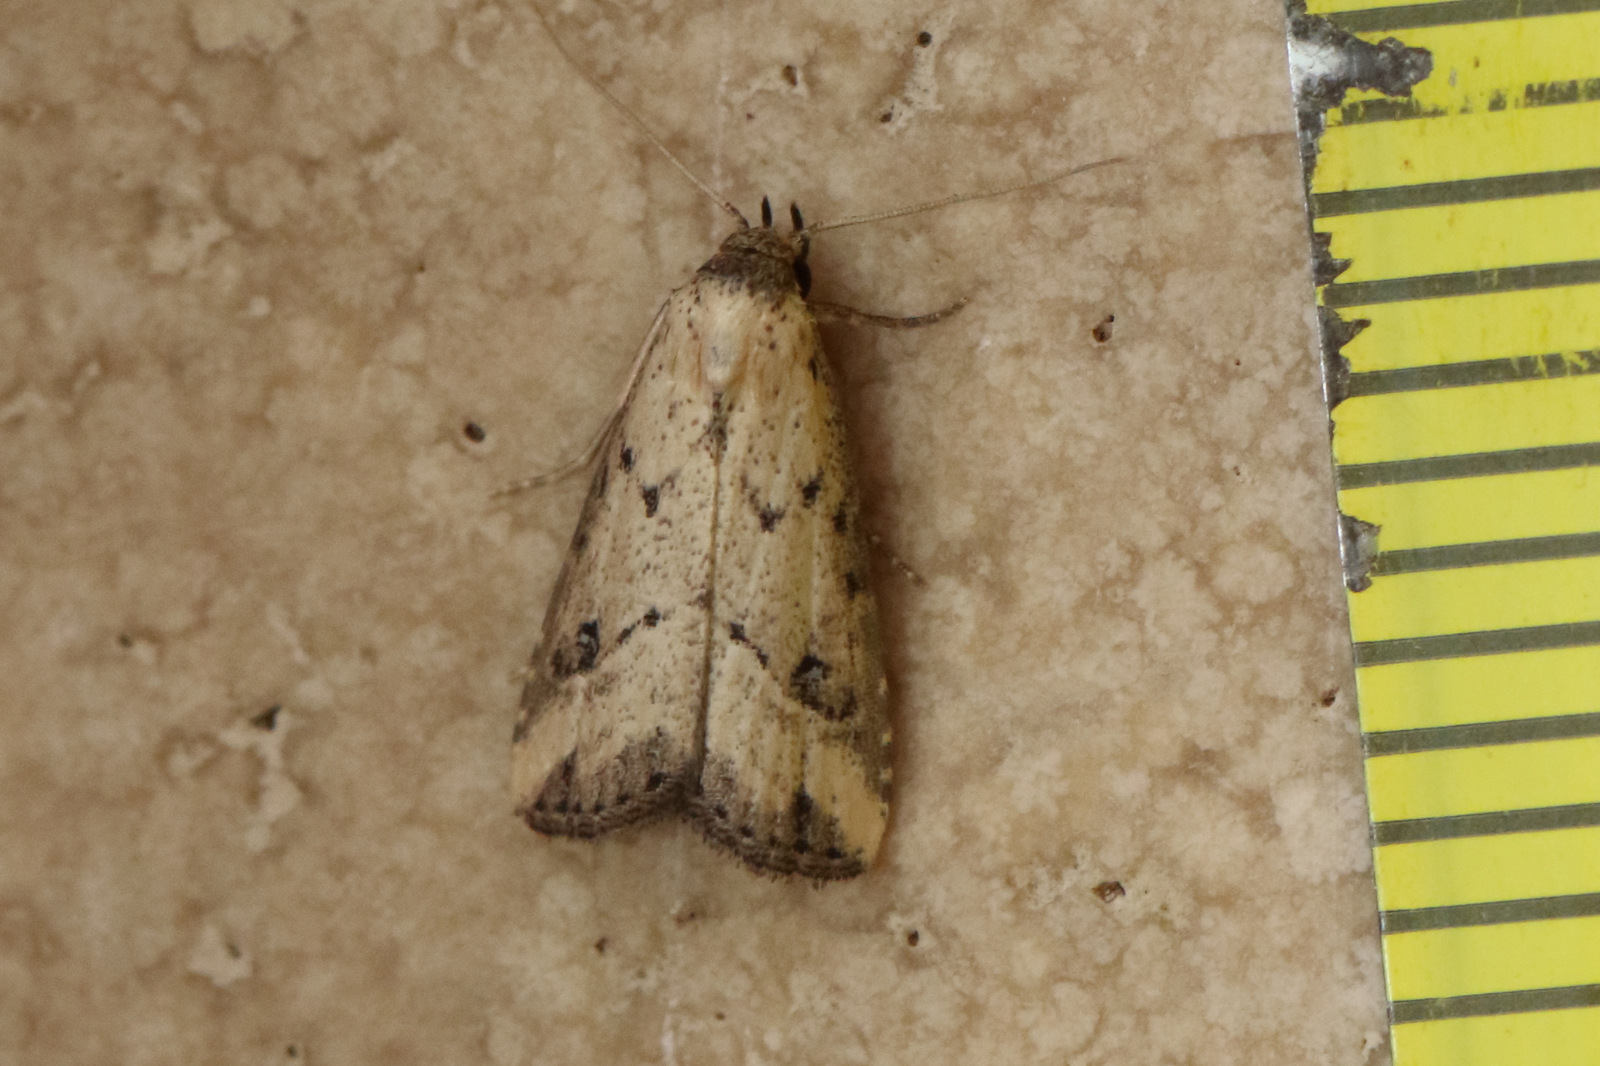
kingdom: Animalia
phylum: Arthropoda
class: Insecta
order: Lepidoptera
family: Erebidae
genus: Luceria
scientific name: Luceria oculalis
